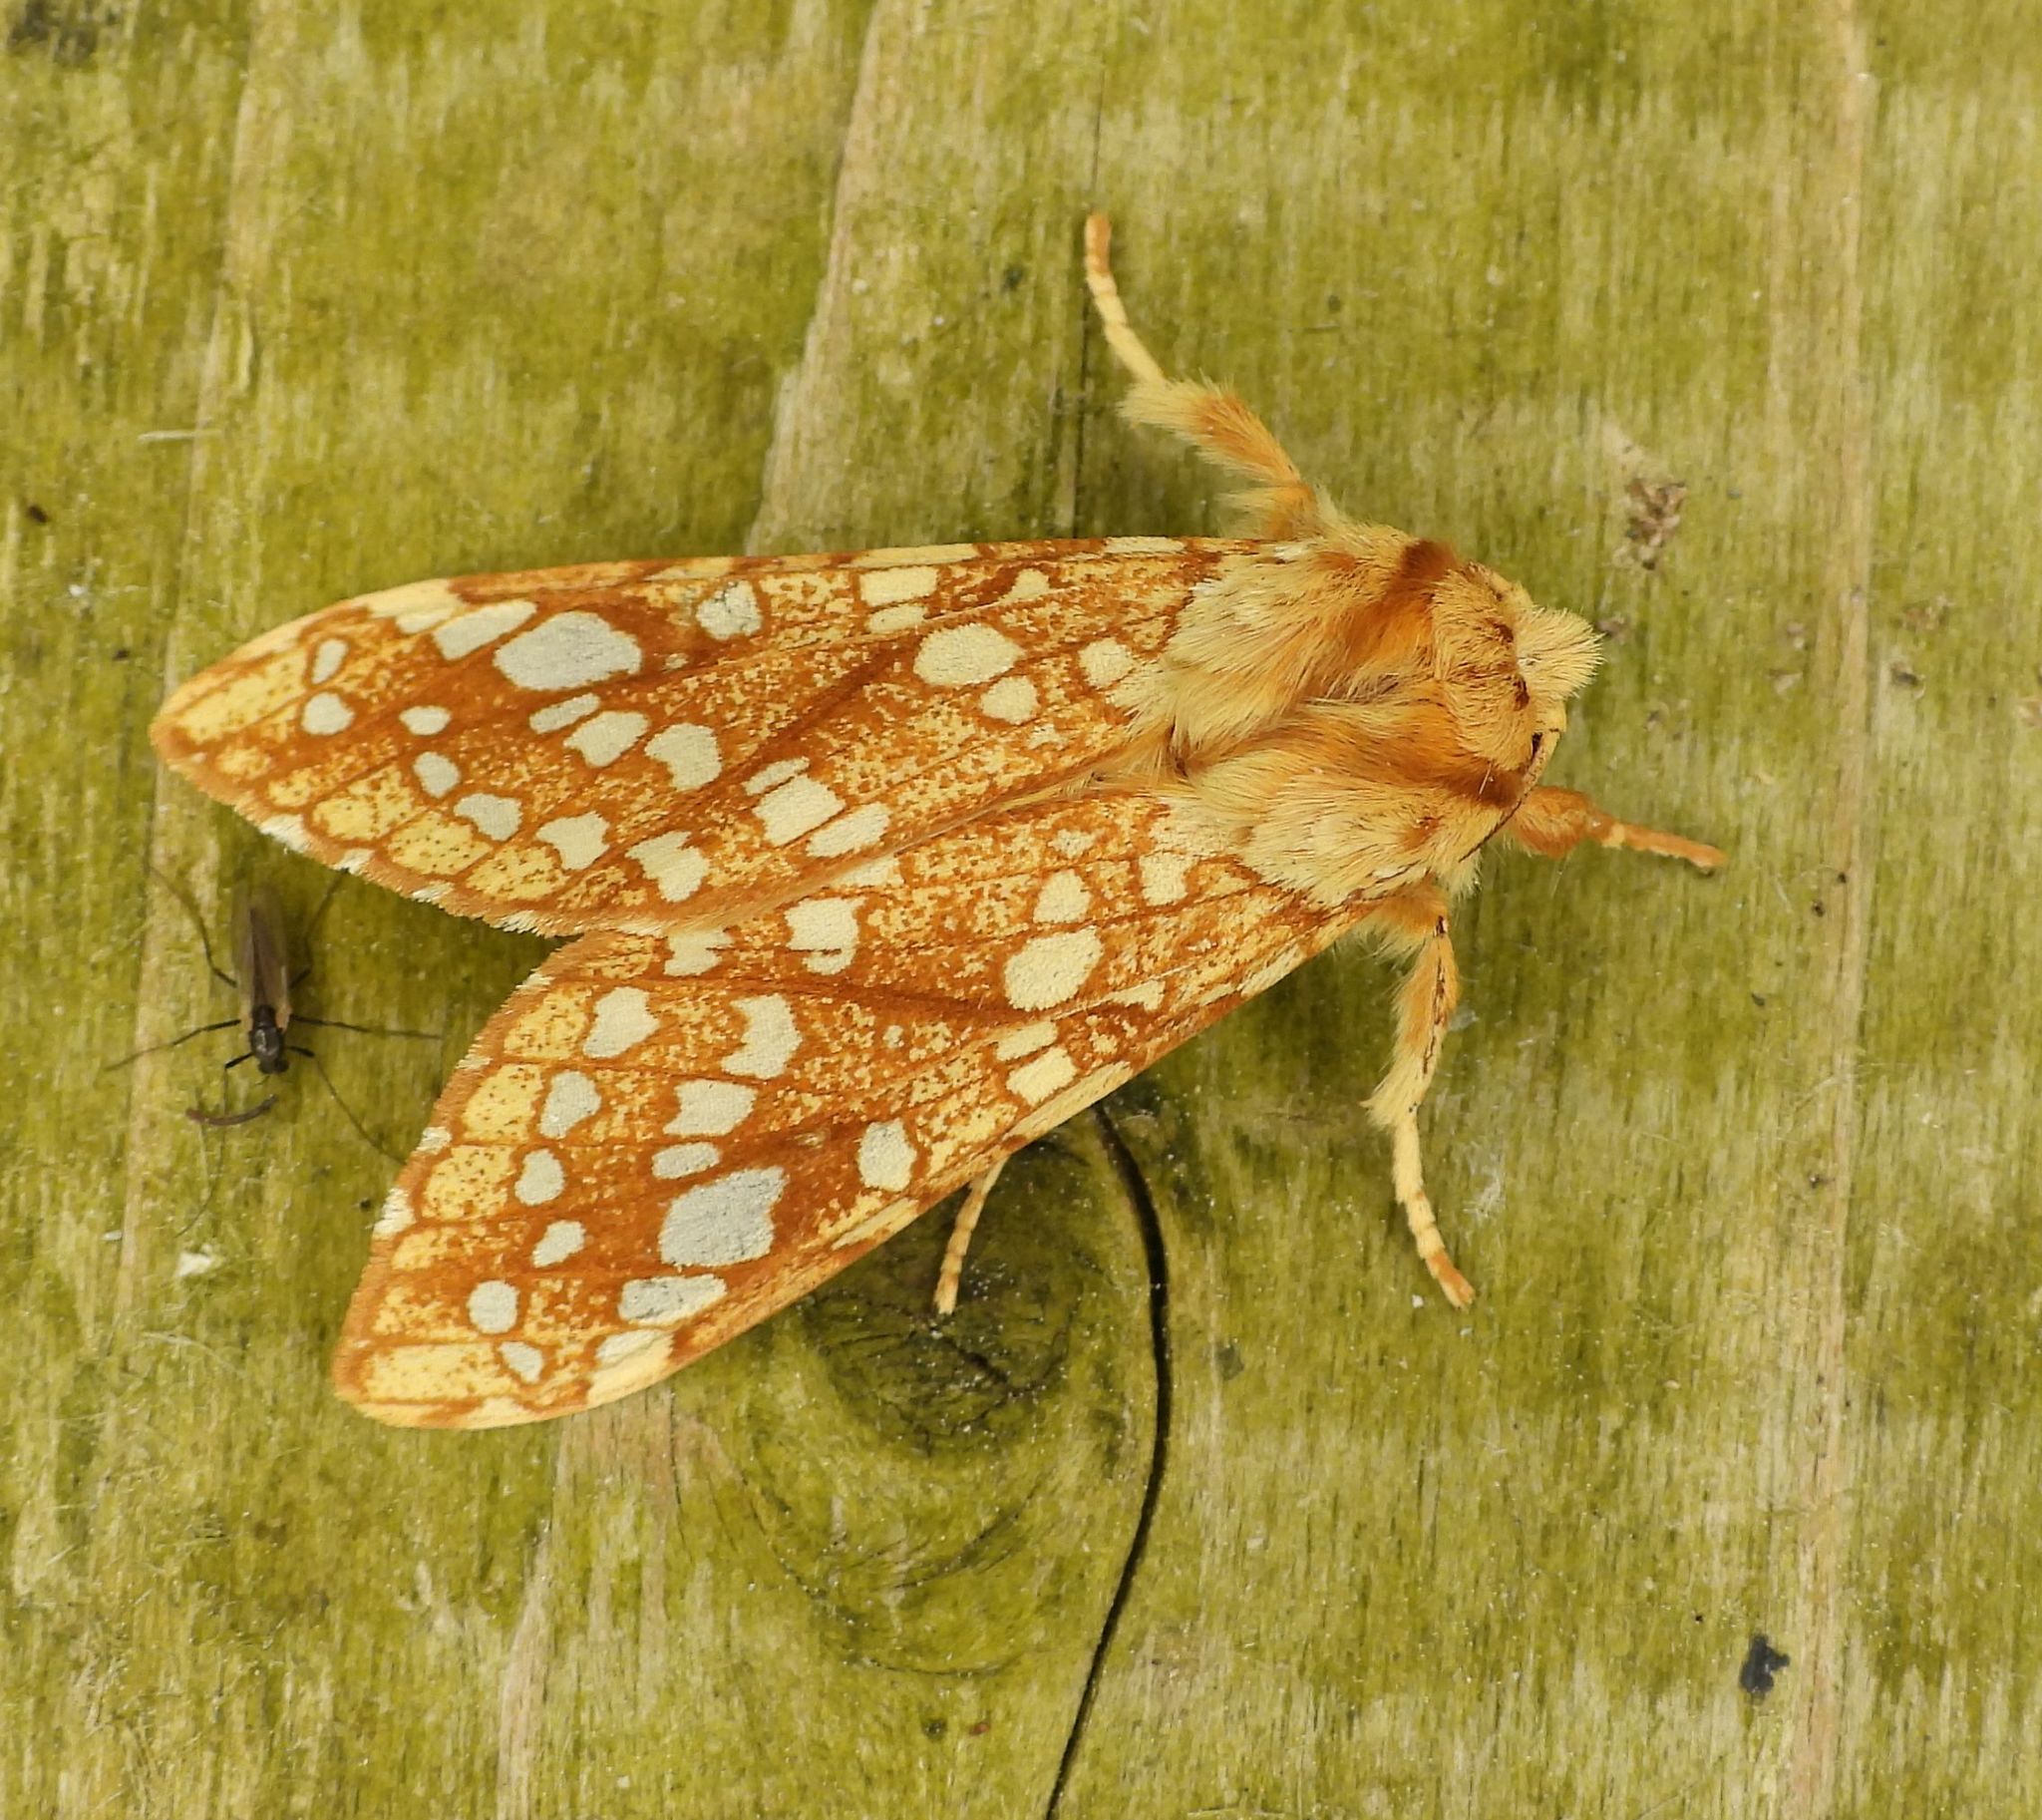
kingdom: Animalia
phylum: Arthropoda
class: Insecta
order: Lepidoptera
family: Erebidae
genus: Lophocampa
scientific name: Lophocampa caryae
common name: Hickory tussock moth
